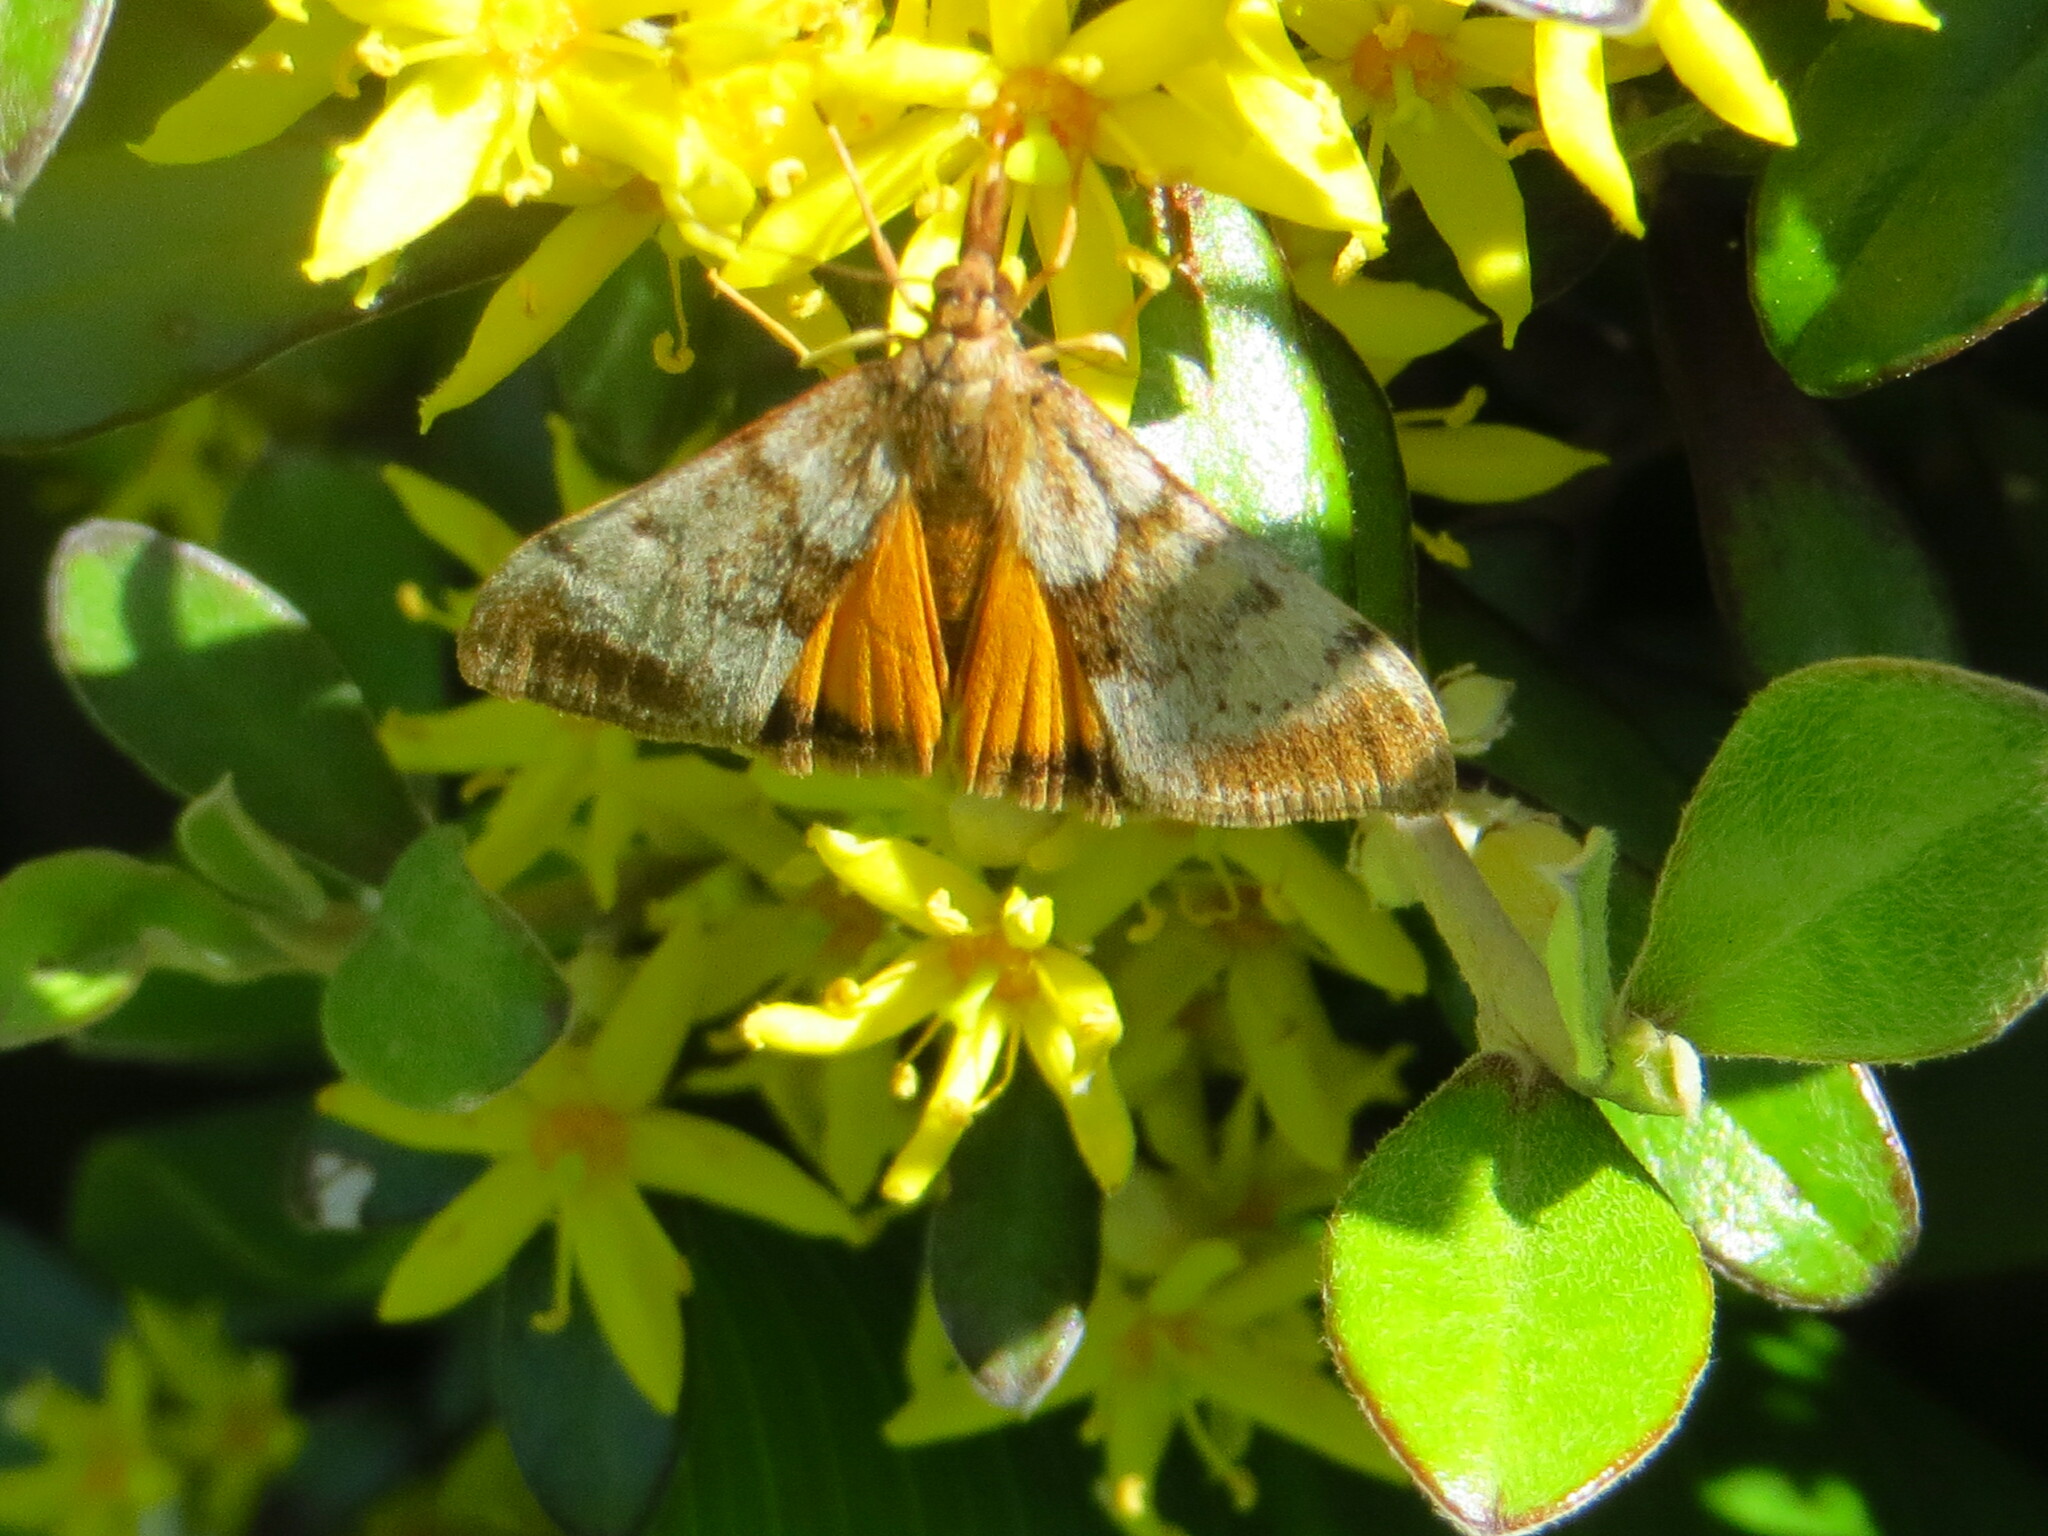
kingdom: Animalia
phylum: Arthropoda
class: Insecta
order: Lepidoptera
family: Crambidae
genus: Uresiphita
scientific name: Uresiphita
